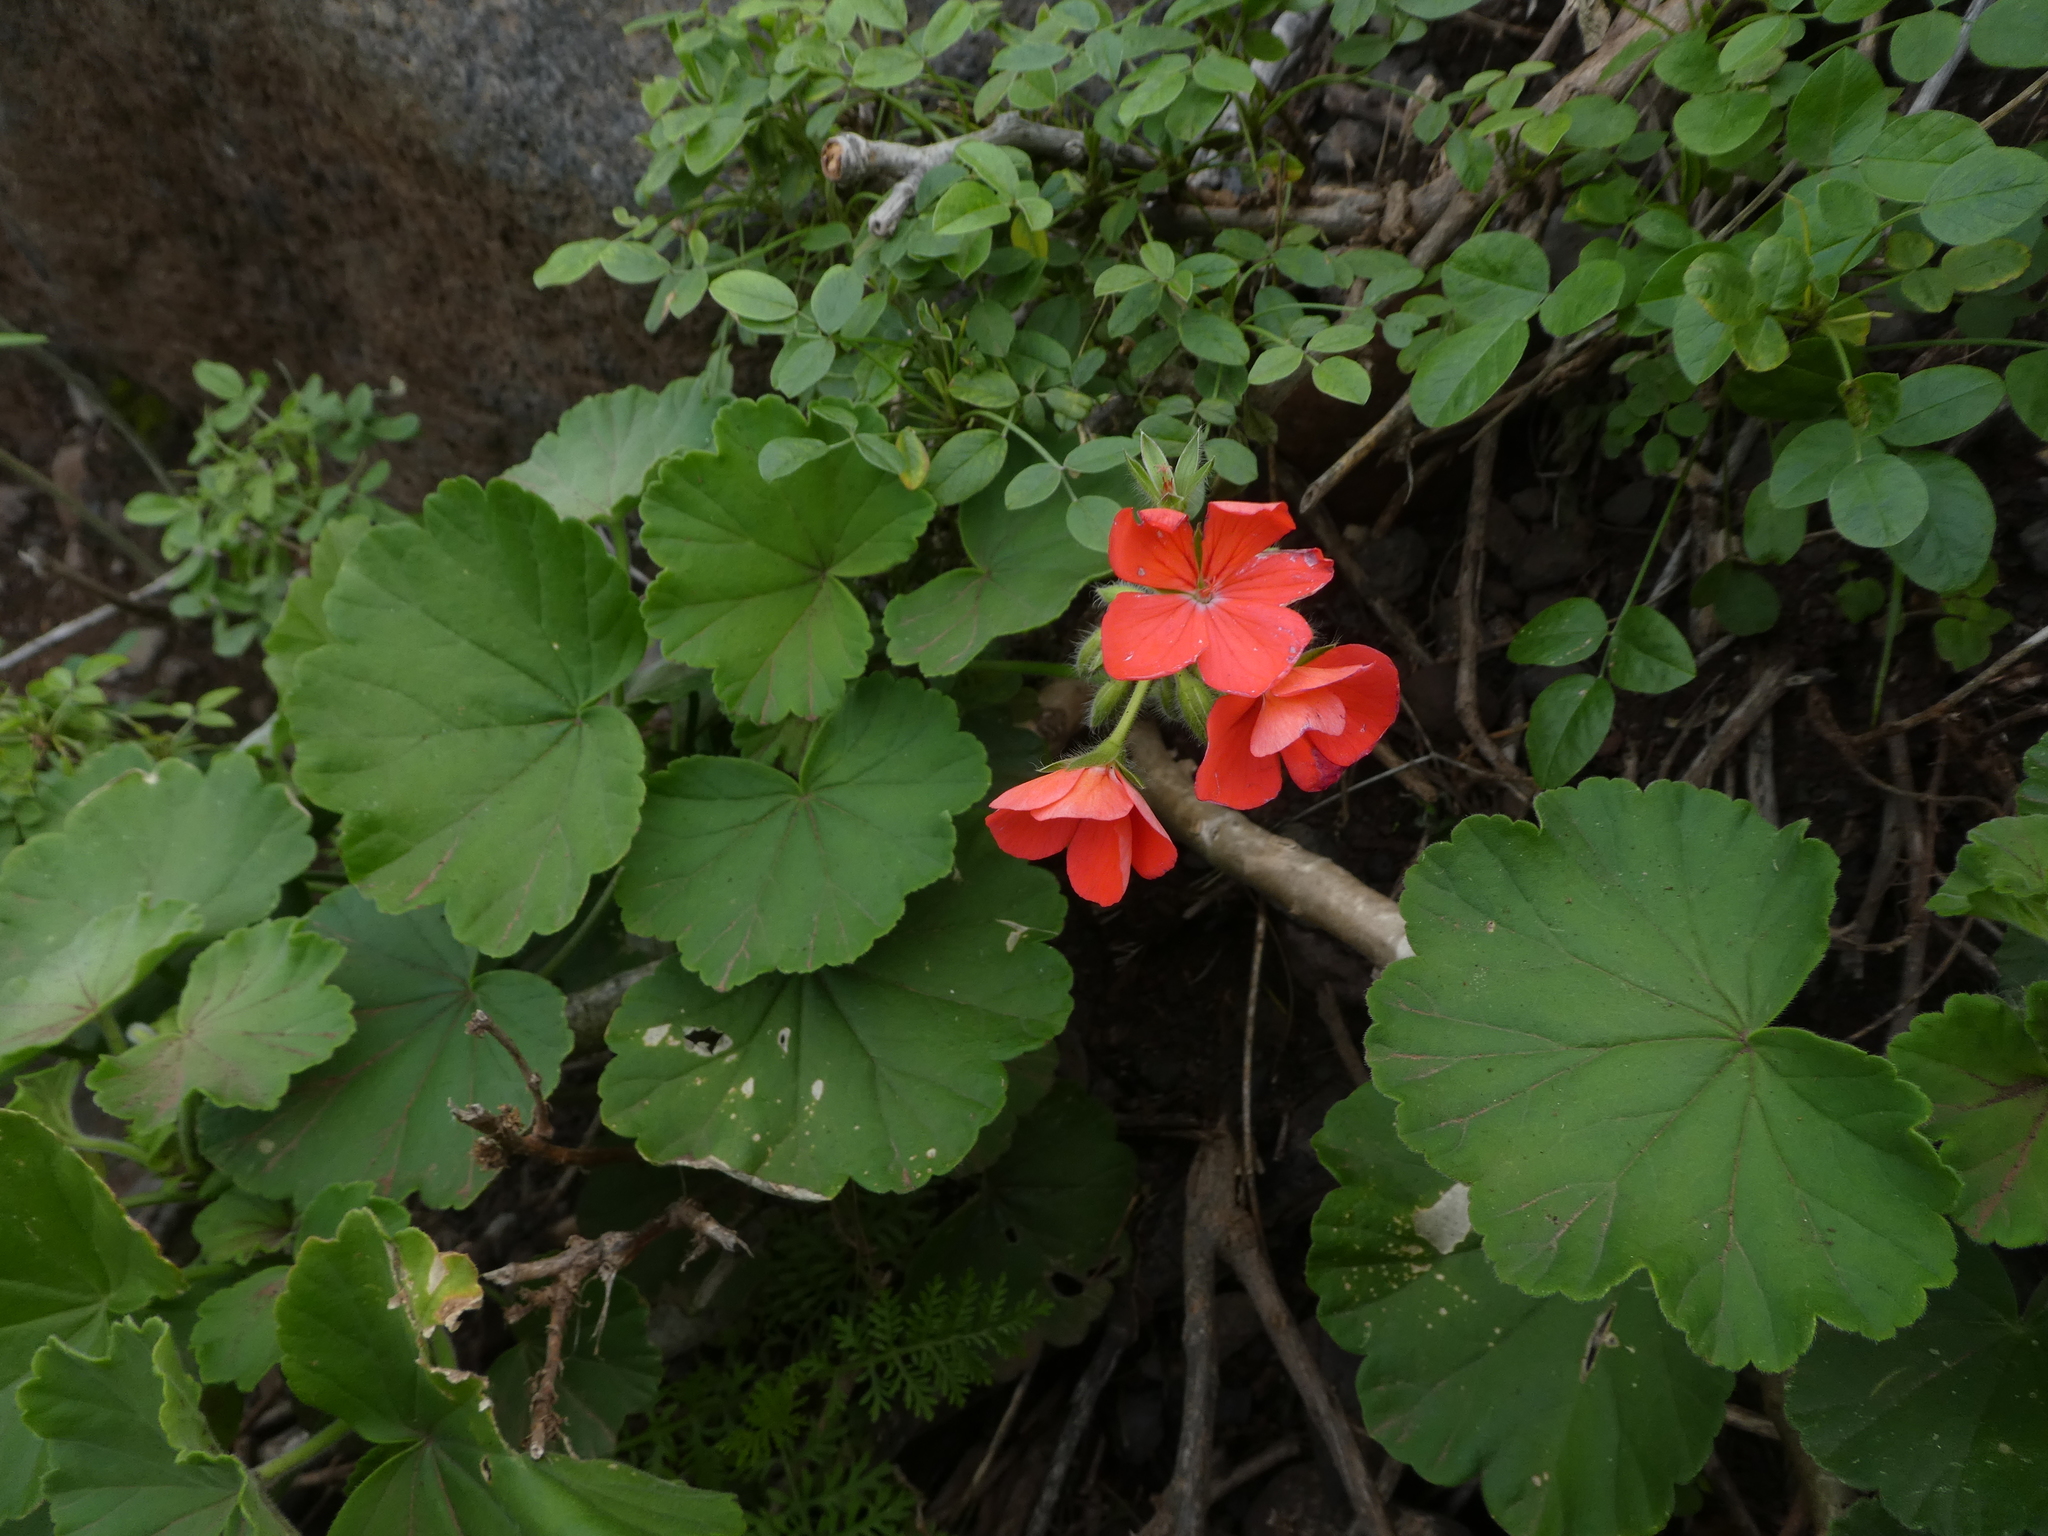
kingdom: Plantae
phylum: Tracheophyta
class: Magnoliopsida
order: Geraniales
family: Geraniaceae
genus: Pelargonium
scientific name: Pelargonium hybridum
